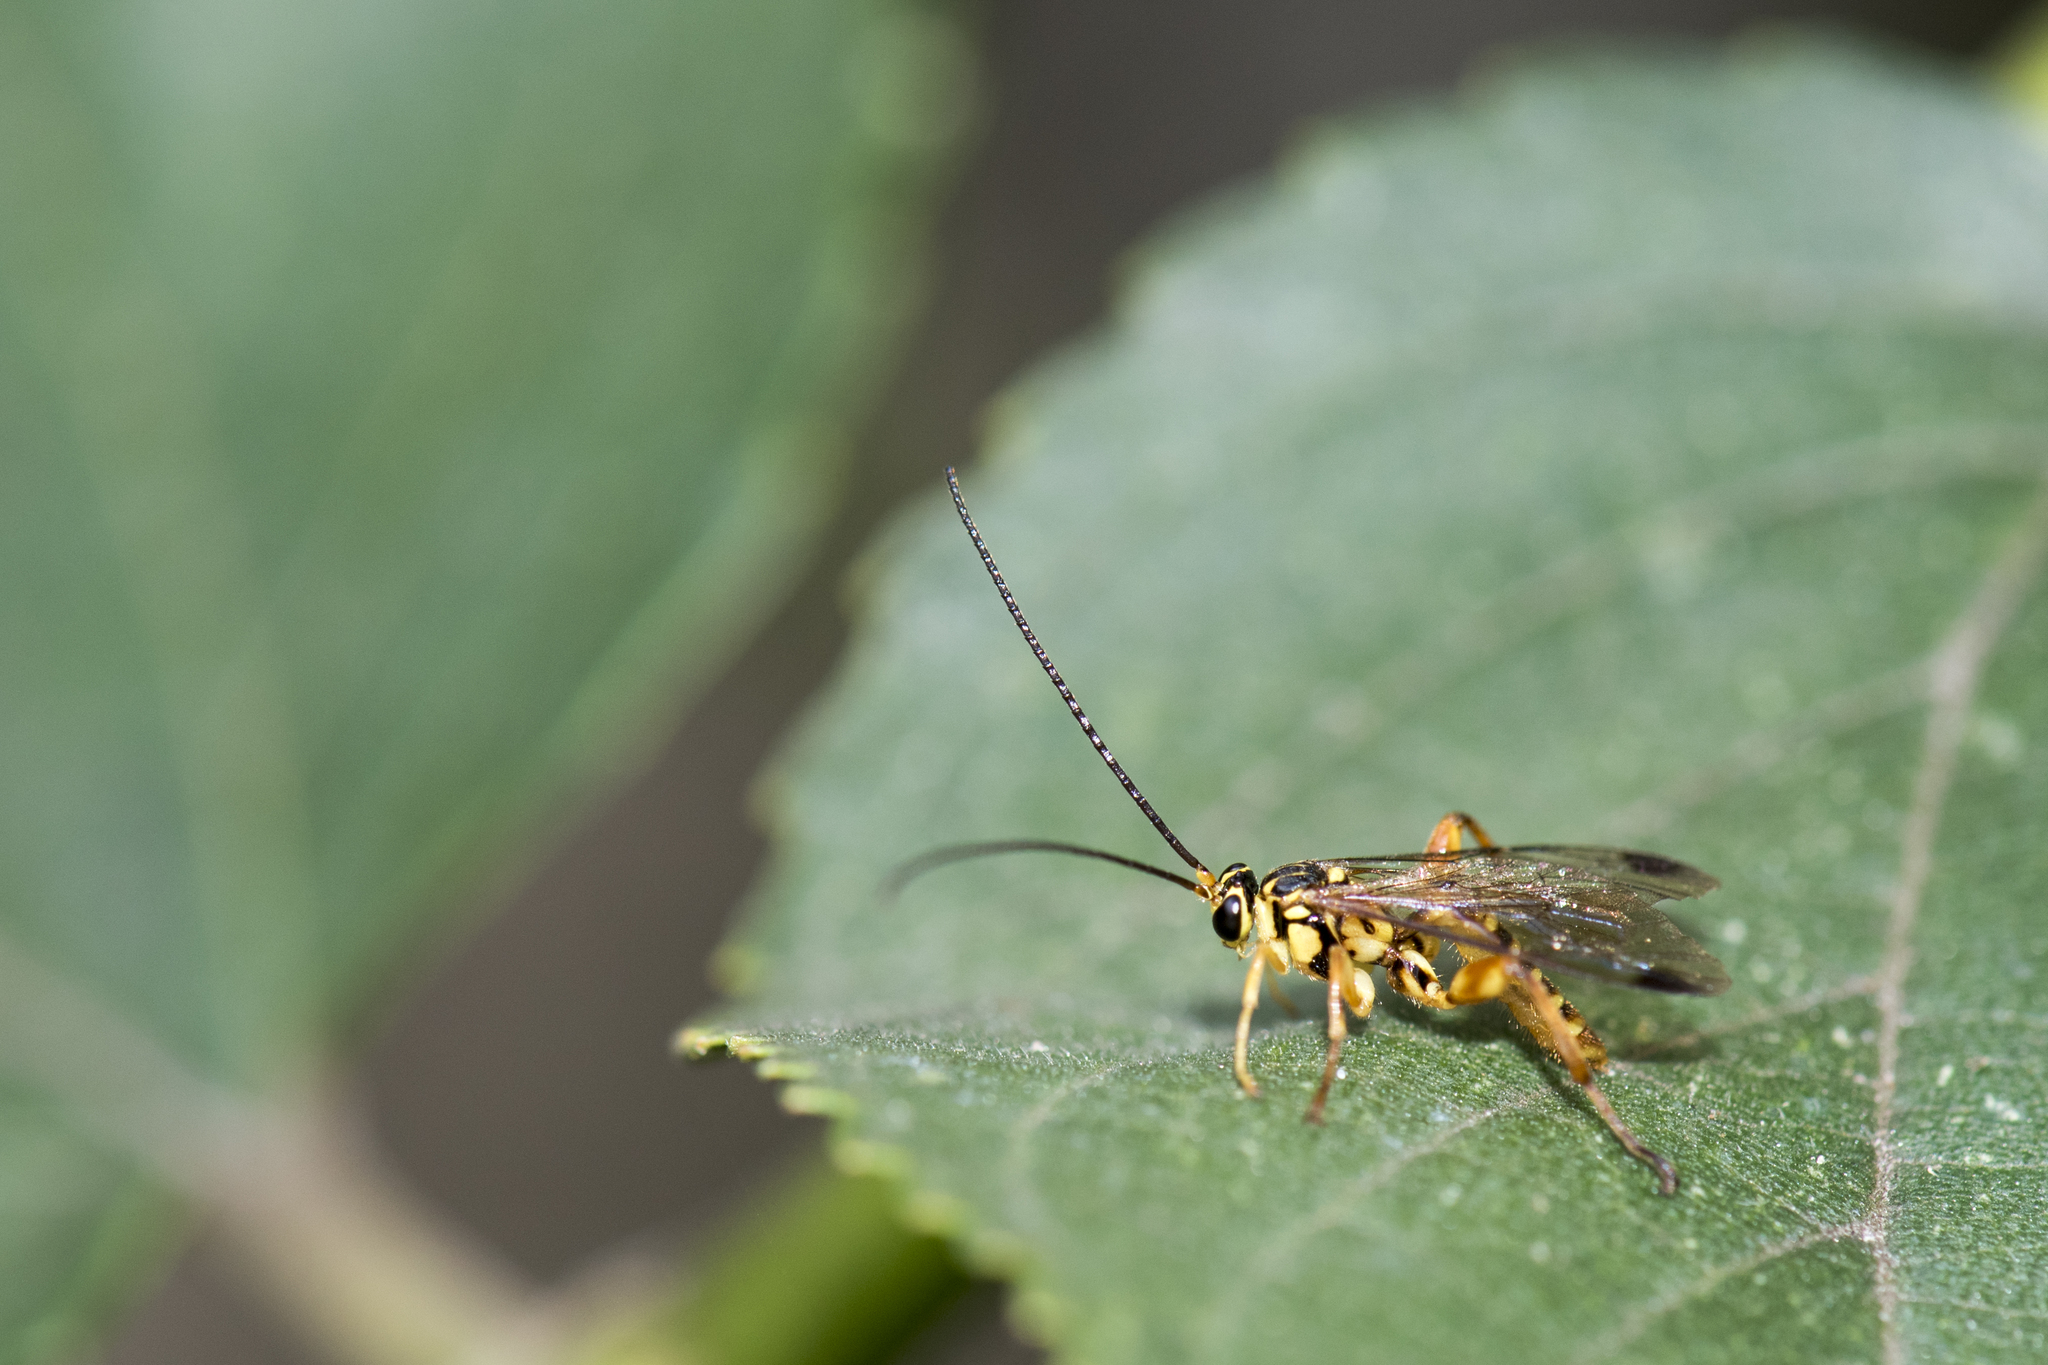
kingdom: Animalia
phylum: Arthropoda
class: Insecta
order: Hymenoptera
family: Ichneumonidae
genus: Echthromorpha
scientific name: Echthromorpha agrestoria
